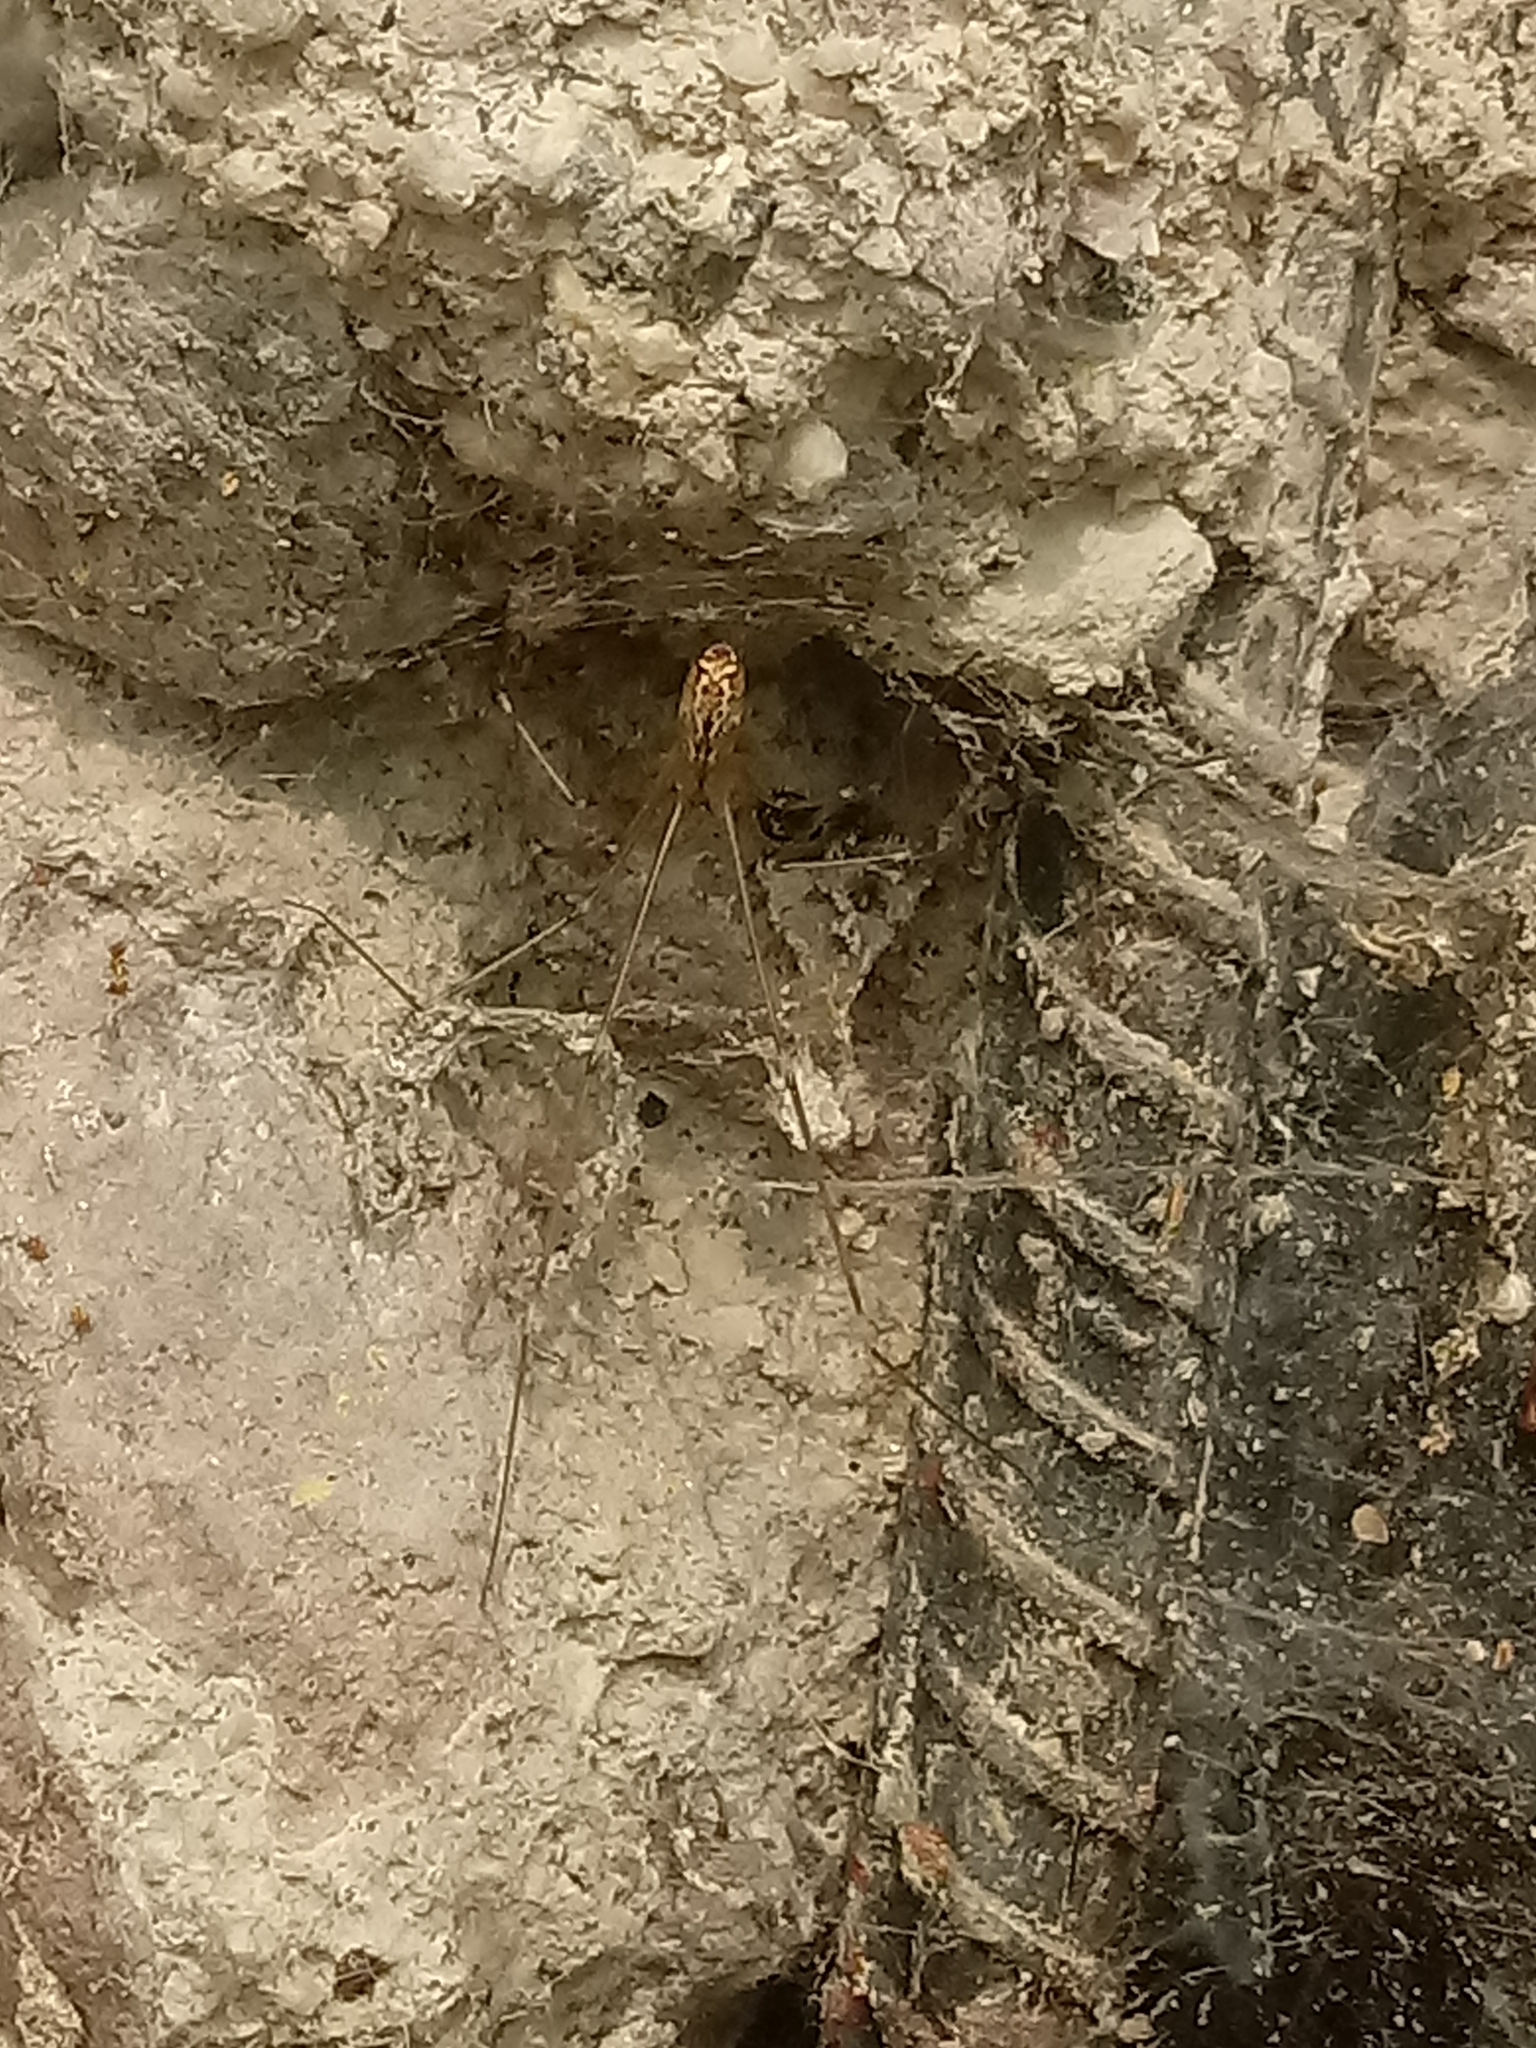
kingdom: Animalia
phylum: Arthropoda
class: Arachnida
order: Araneae
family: Pholcidae
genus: Holocnemus
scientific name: Holocnemus pluchei
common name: Marbled cellar spider
